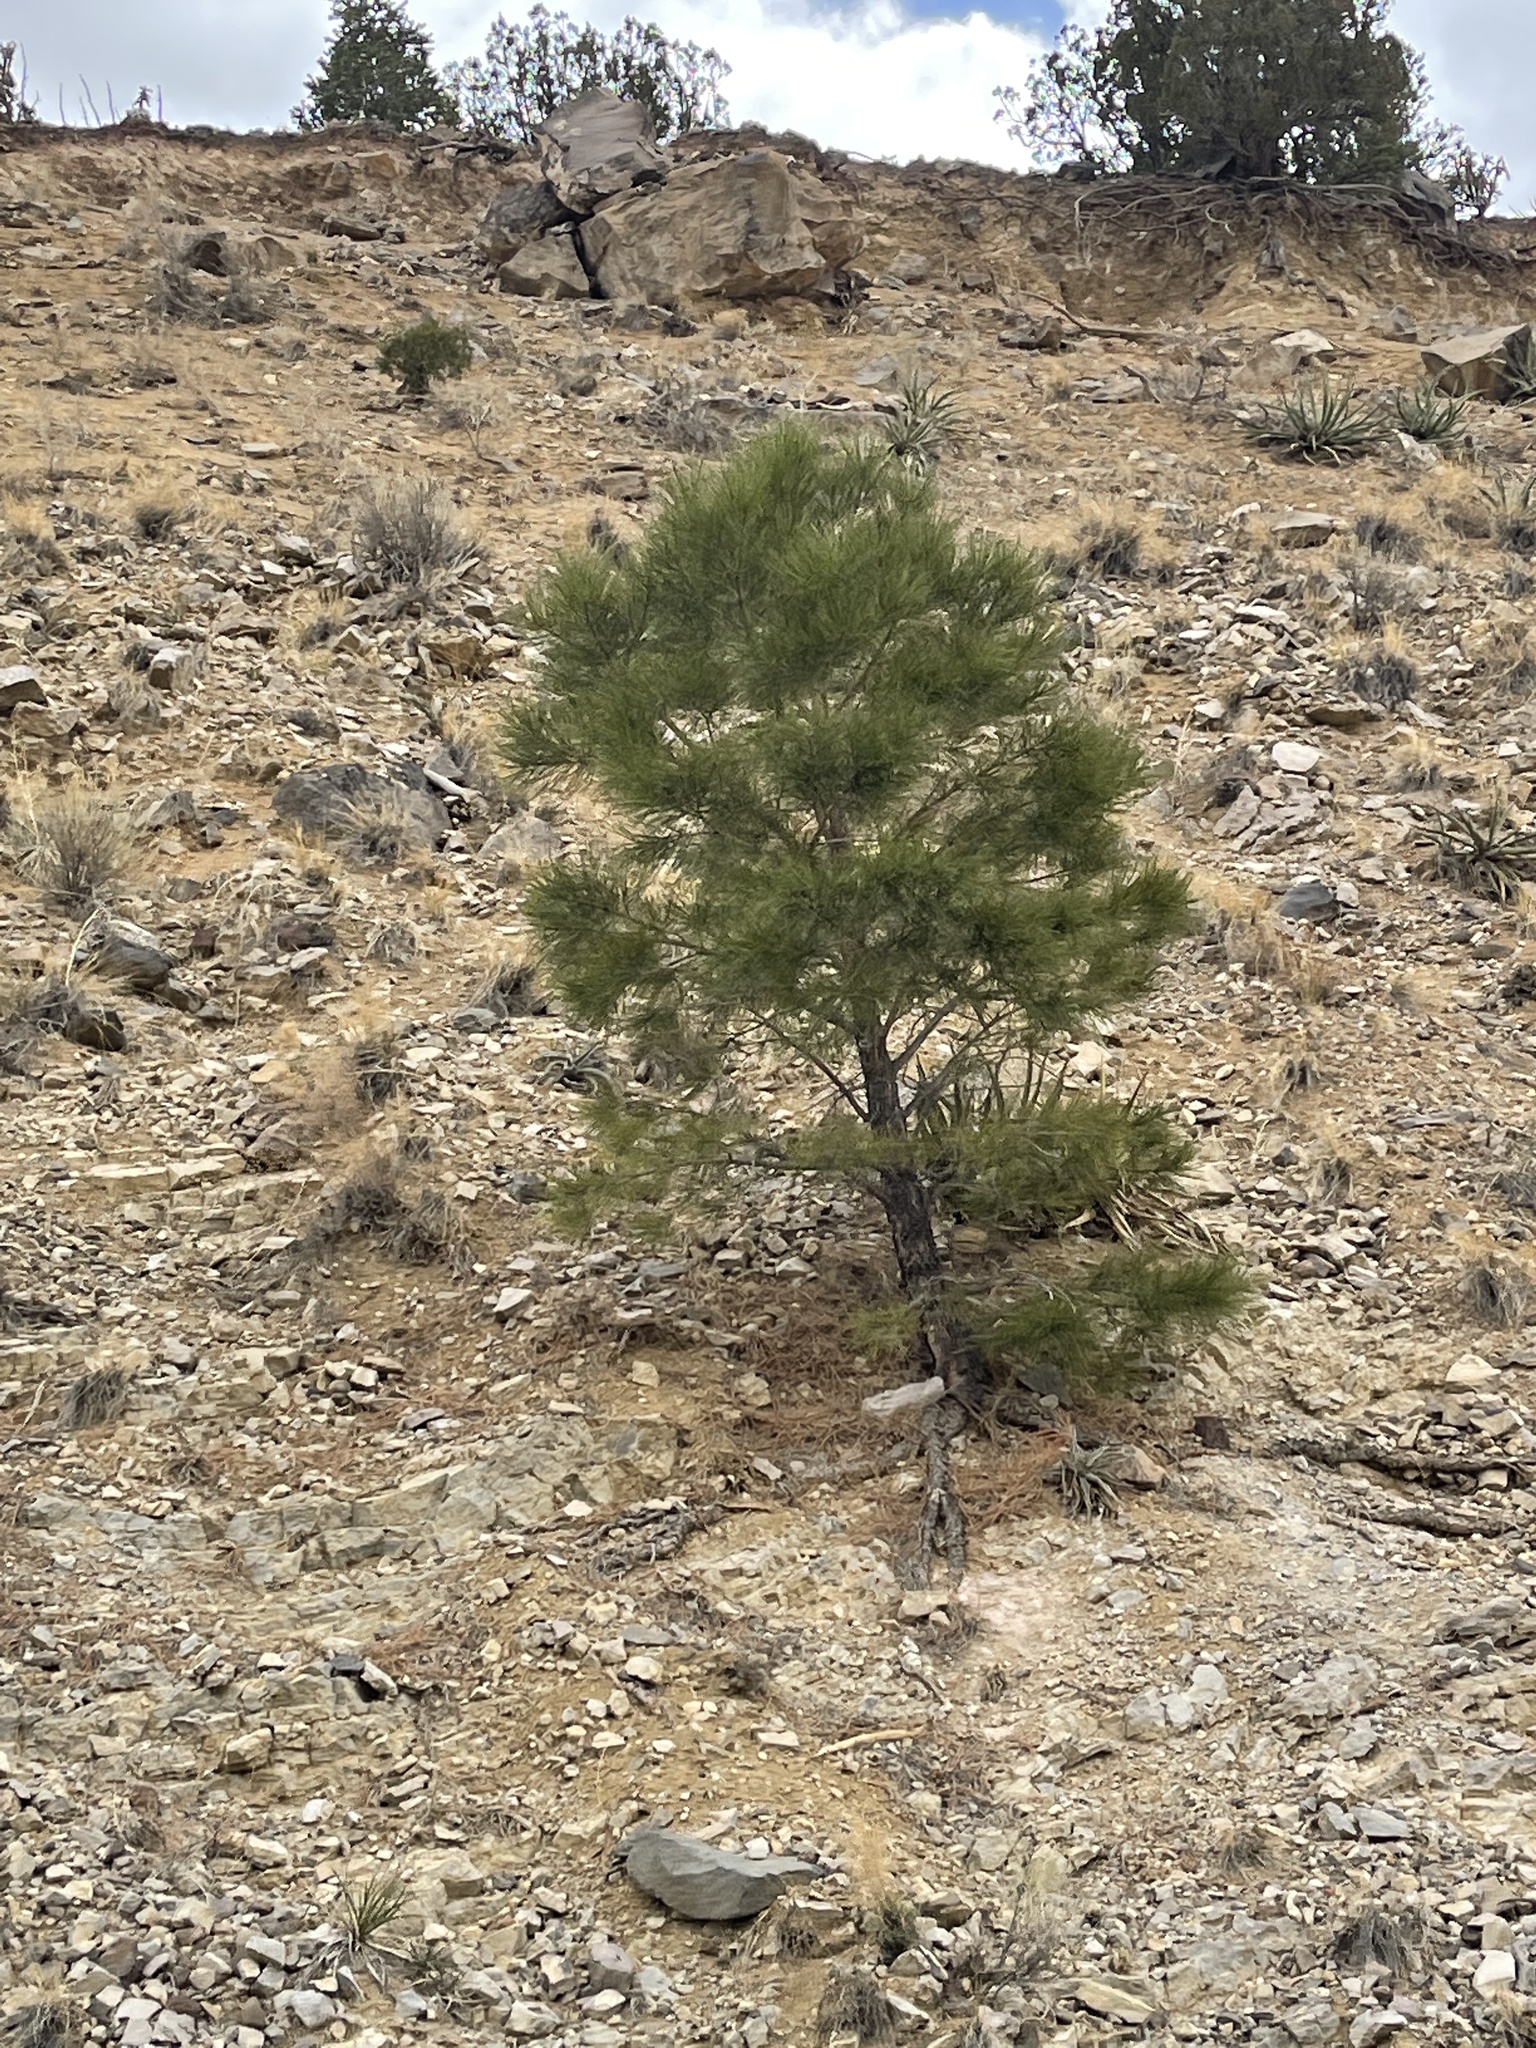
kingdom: Plantae
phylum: Tracheophyta
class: Pinopsida
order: Pinales
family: Pinaceae
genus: Pinus
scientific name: Pinus ponderosa
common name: Western yellow-pine
